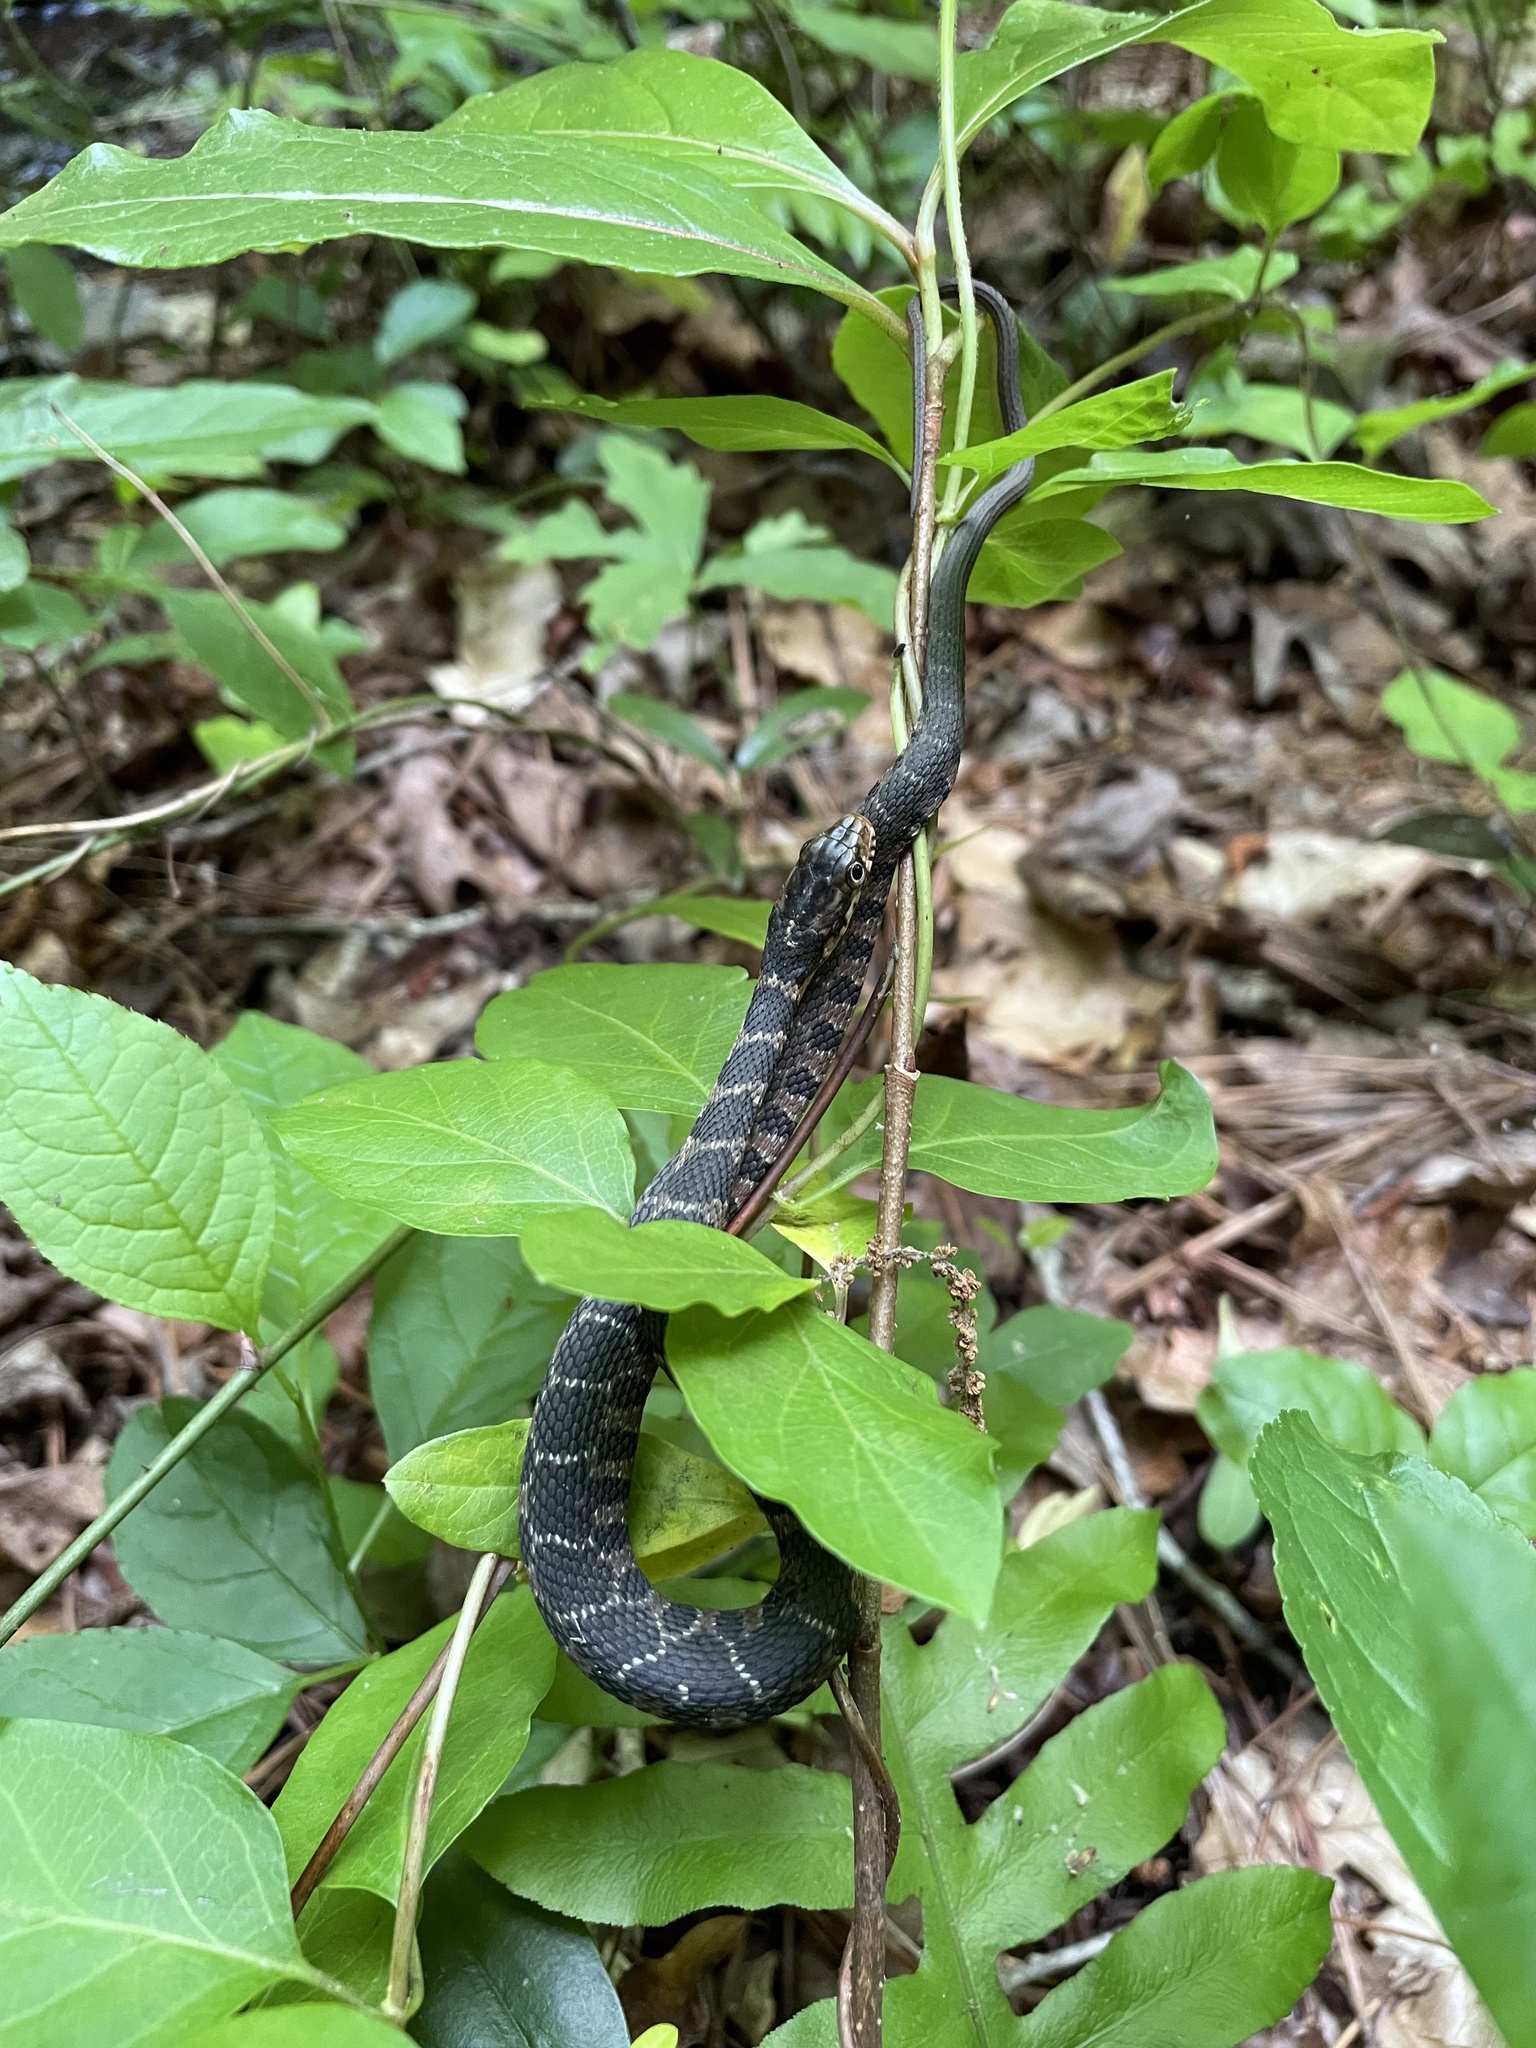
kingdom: Animalia
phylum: Chordata
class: Squamata
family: Colubridae
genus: Nerodia
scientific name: Nerodia erythrogaster
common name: Plainbelly water snake
